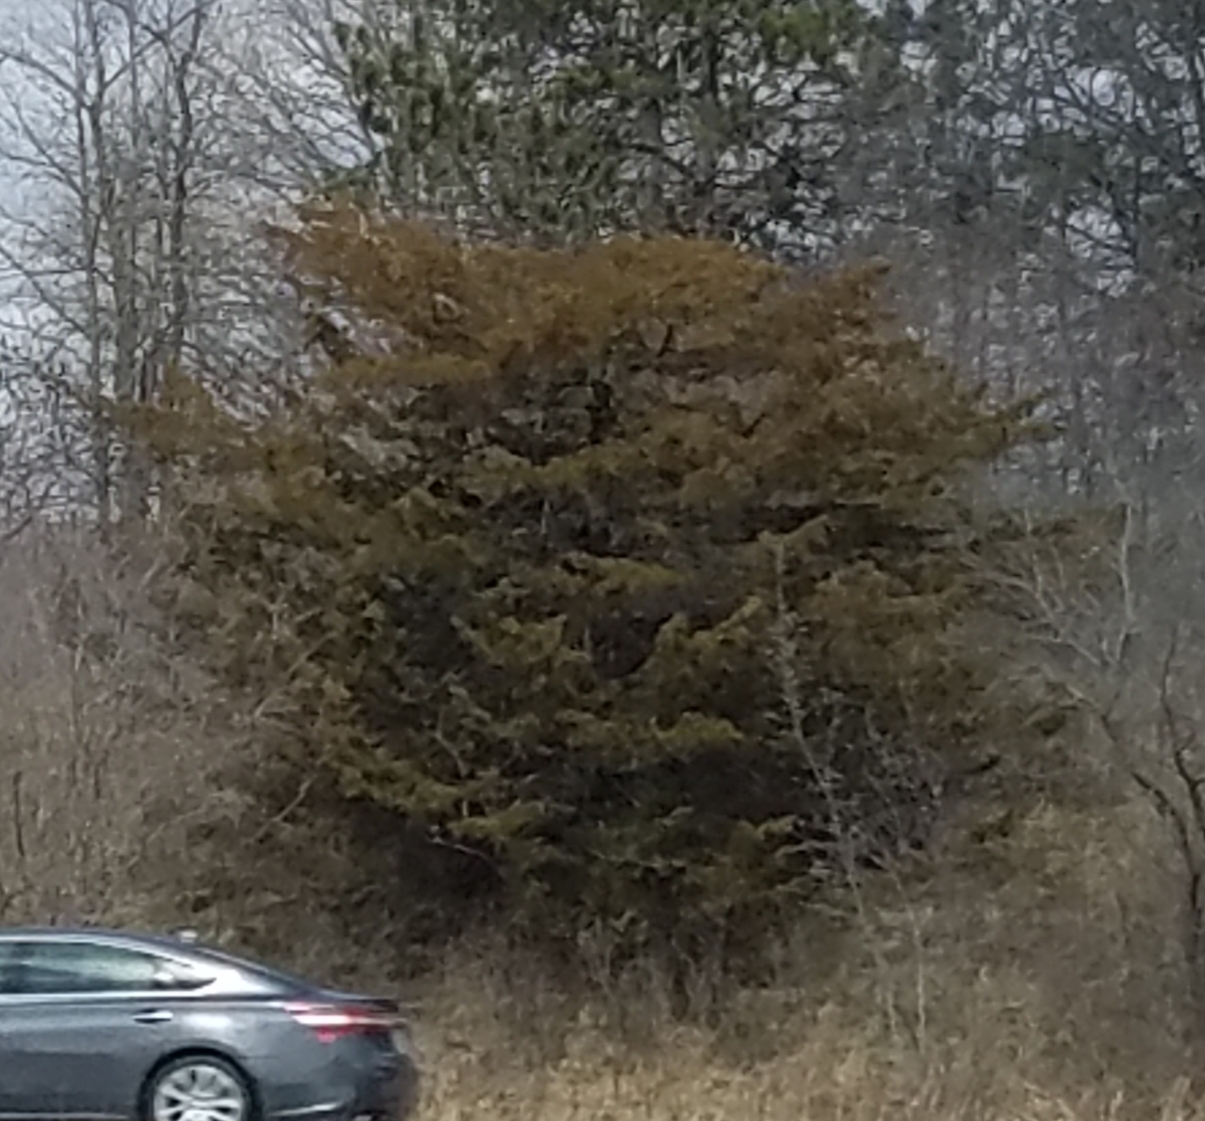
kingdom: Plantae
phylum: Tracheophyta
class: Pinopsida
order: Pinales
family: Cupressaceae
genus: Juniperus
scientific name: Juniperus virginiana
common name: Red juniper
